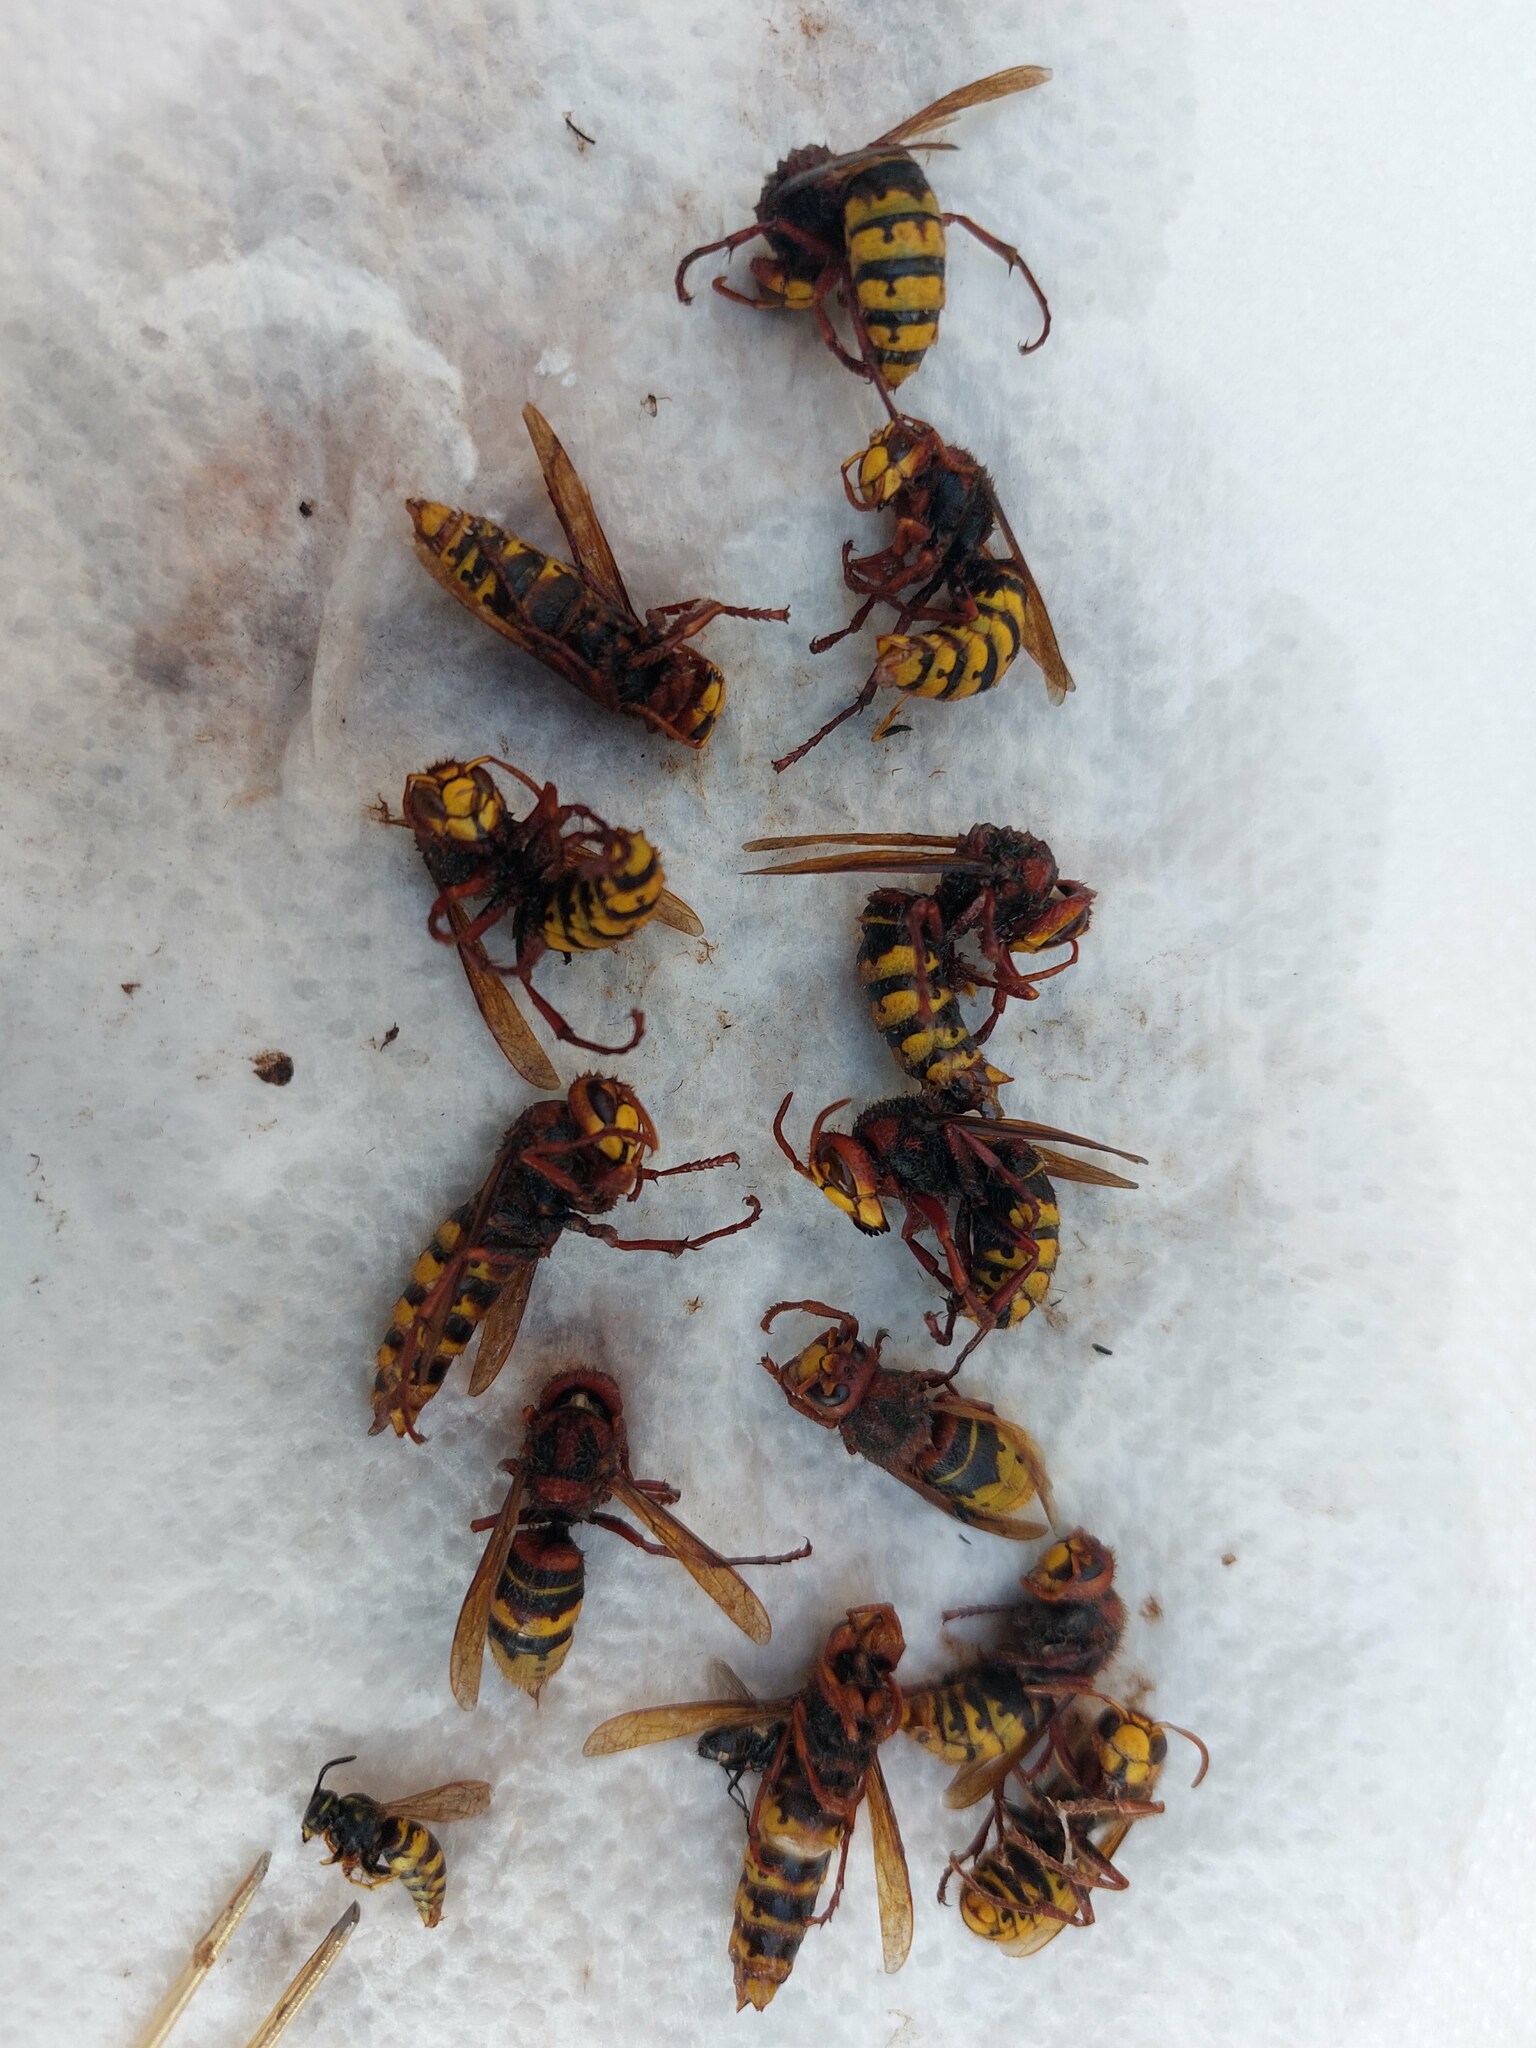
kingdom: Animalia
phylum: Arthropoda
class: Insecta
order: Hymenoptera
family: Vespidae
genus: Vespa
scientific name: Vespa crabro
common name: Hornet
